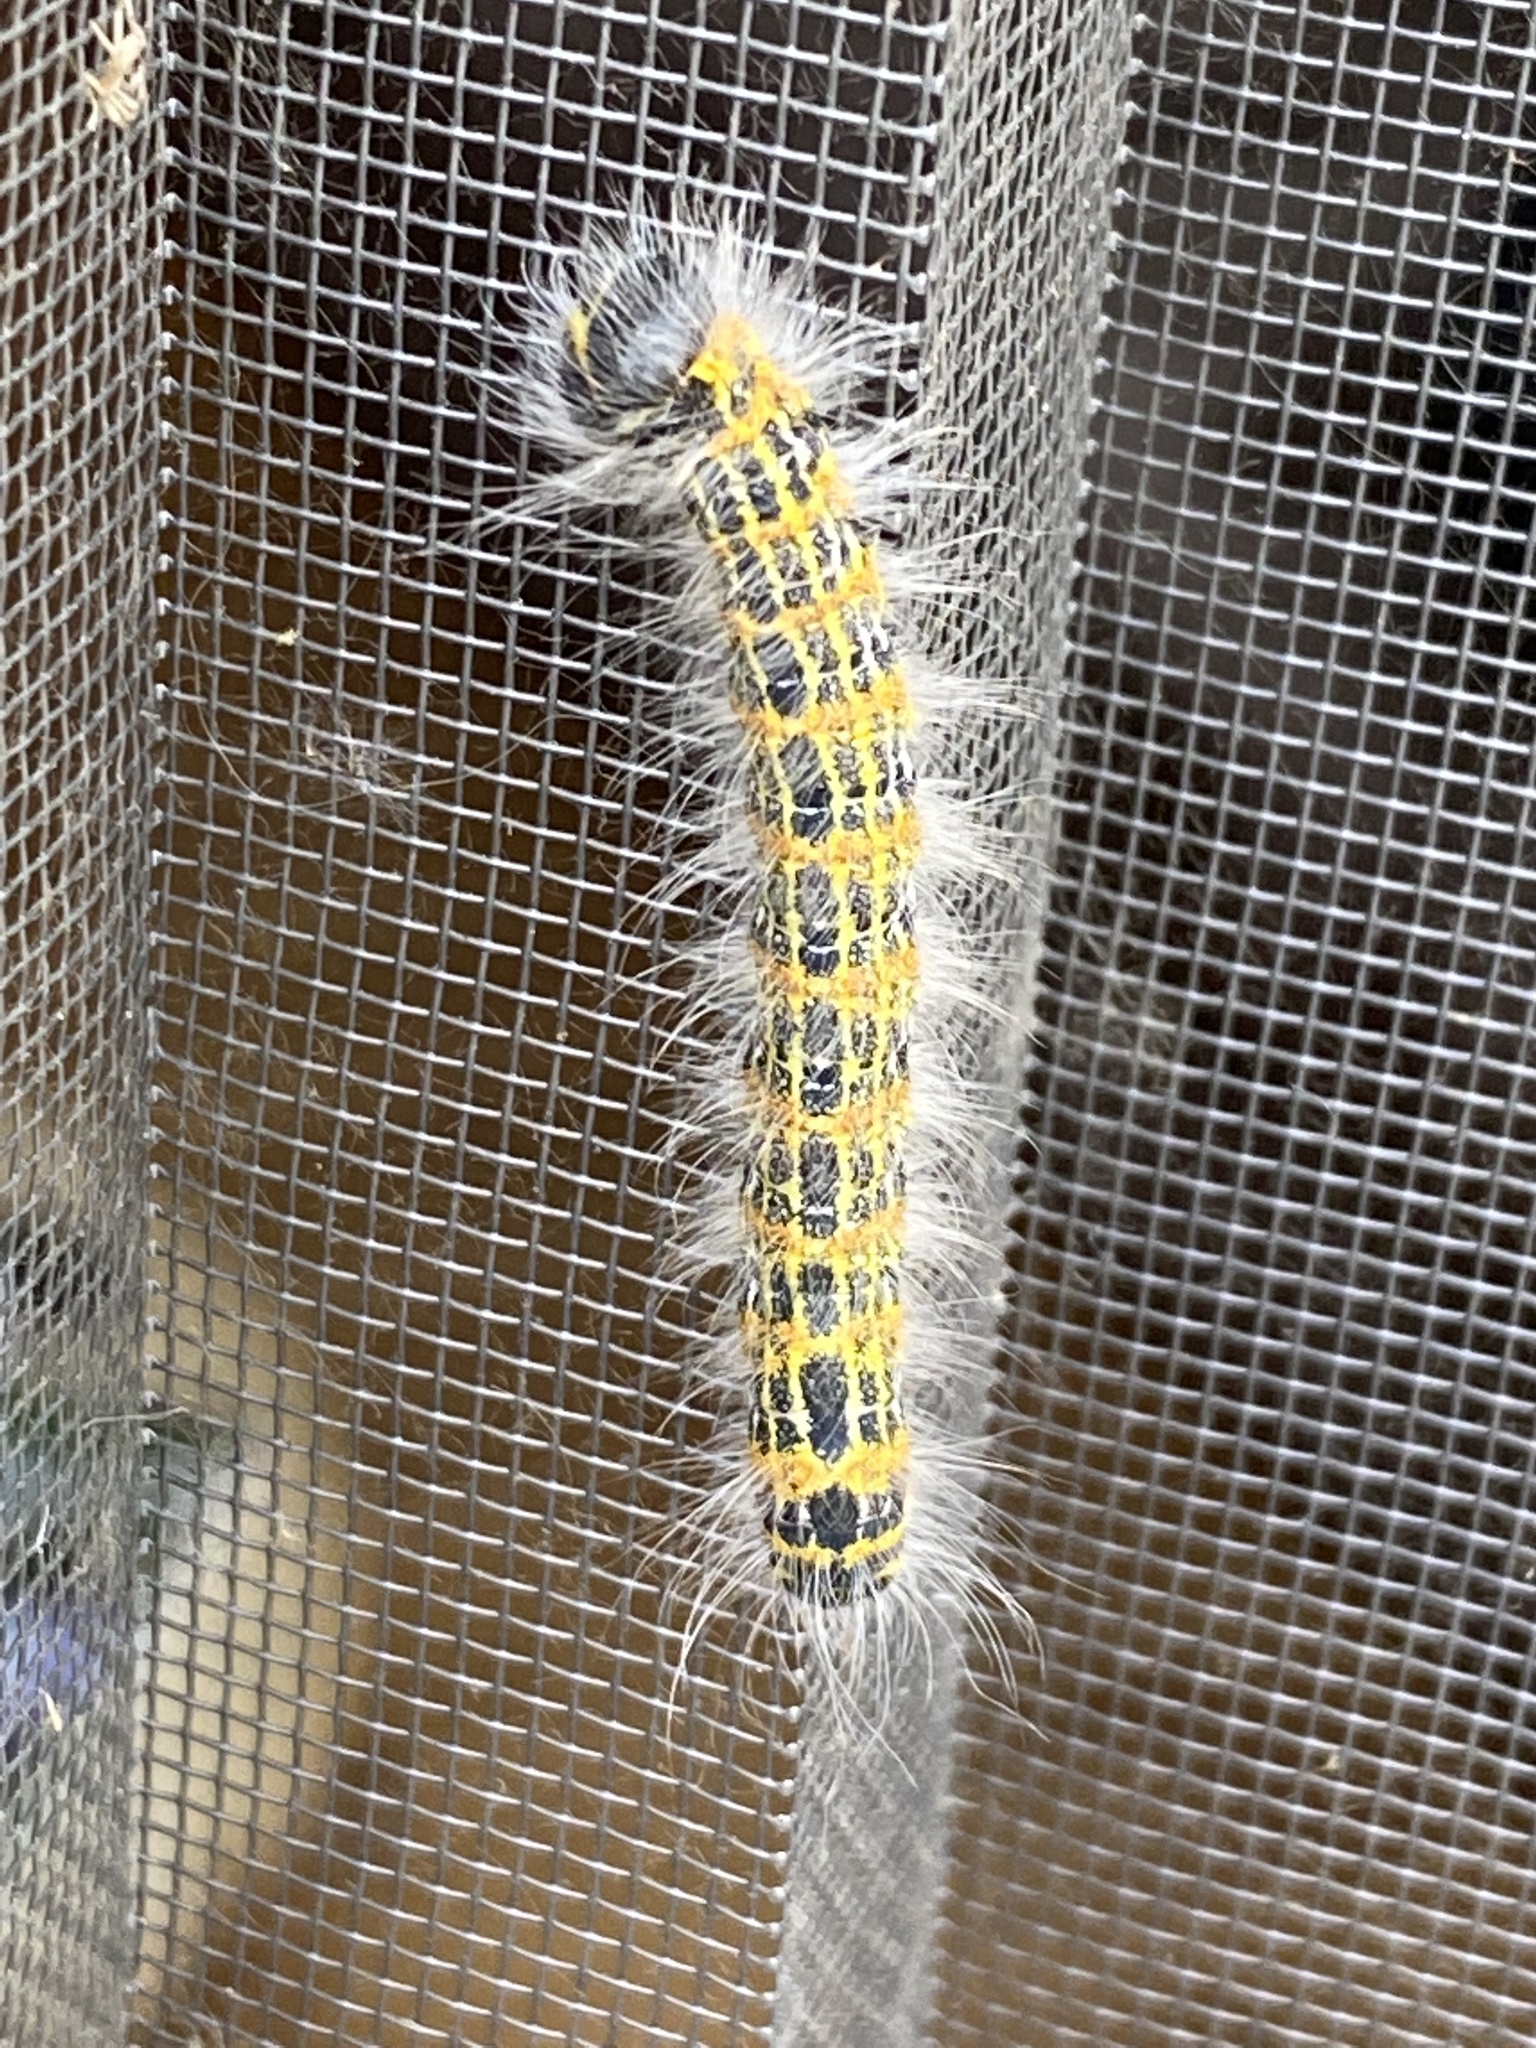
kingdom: Animalia
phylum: Arthropoda
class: Insecta
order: Lepidoptera
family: Notodontidae
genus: Phalera
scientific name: Phalera bucephala
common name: Buff-tip
